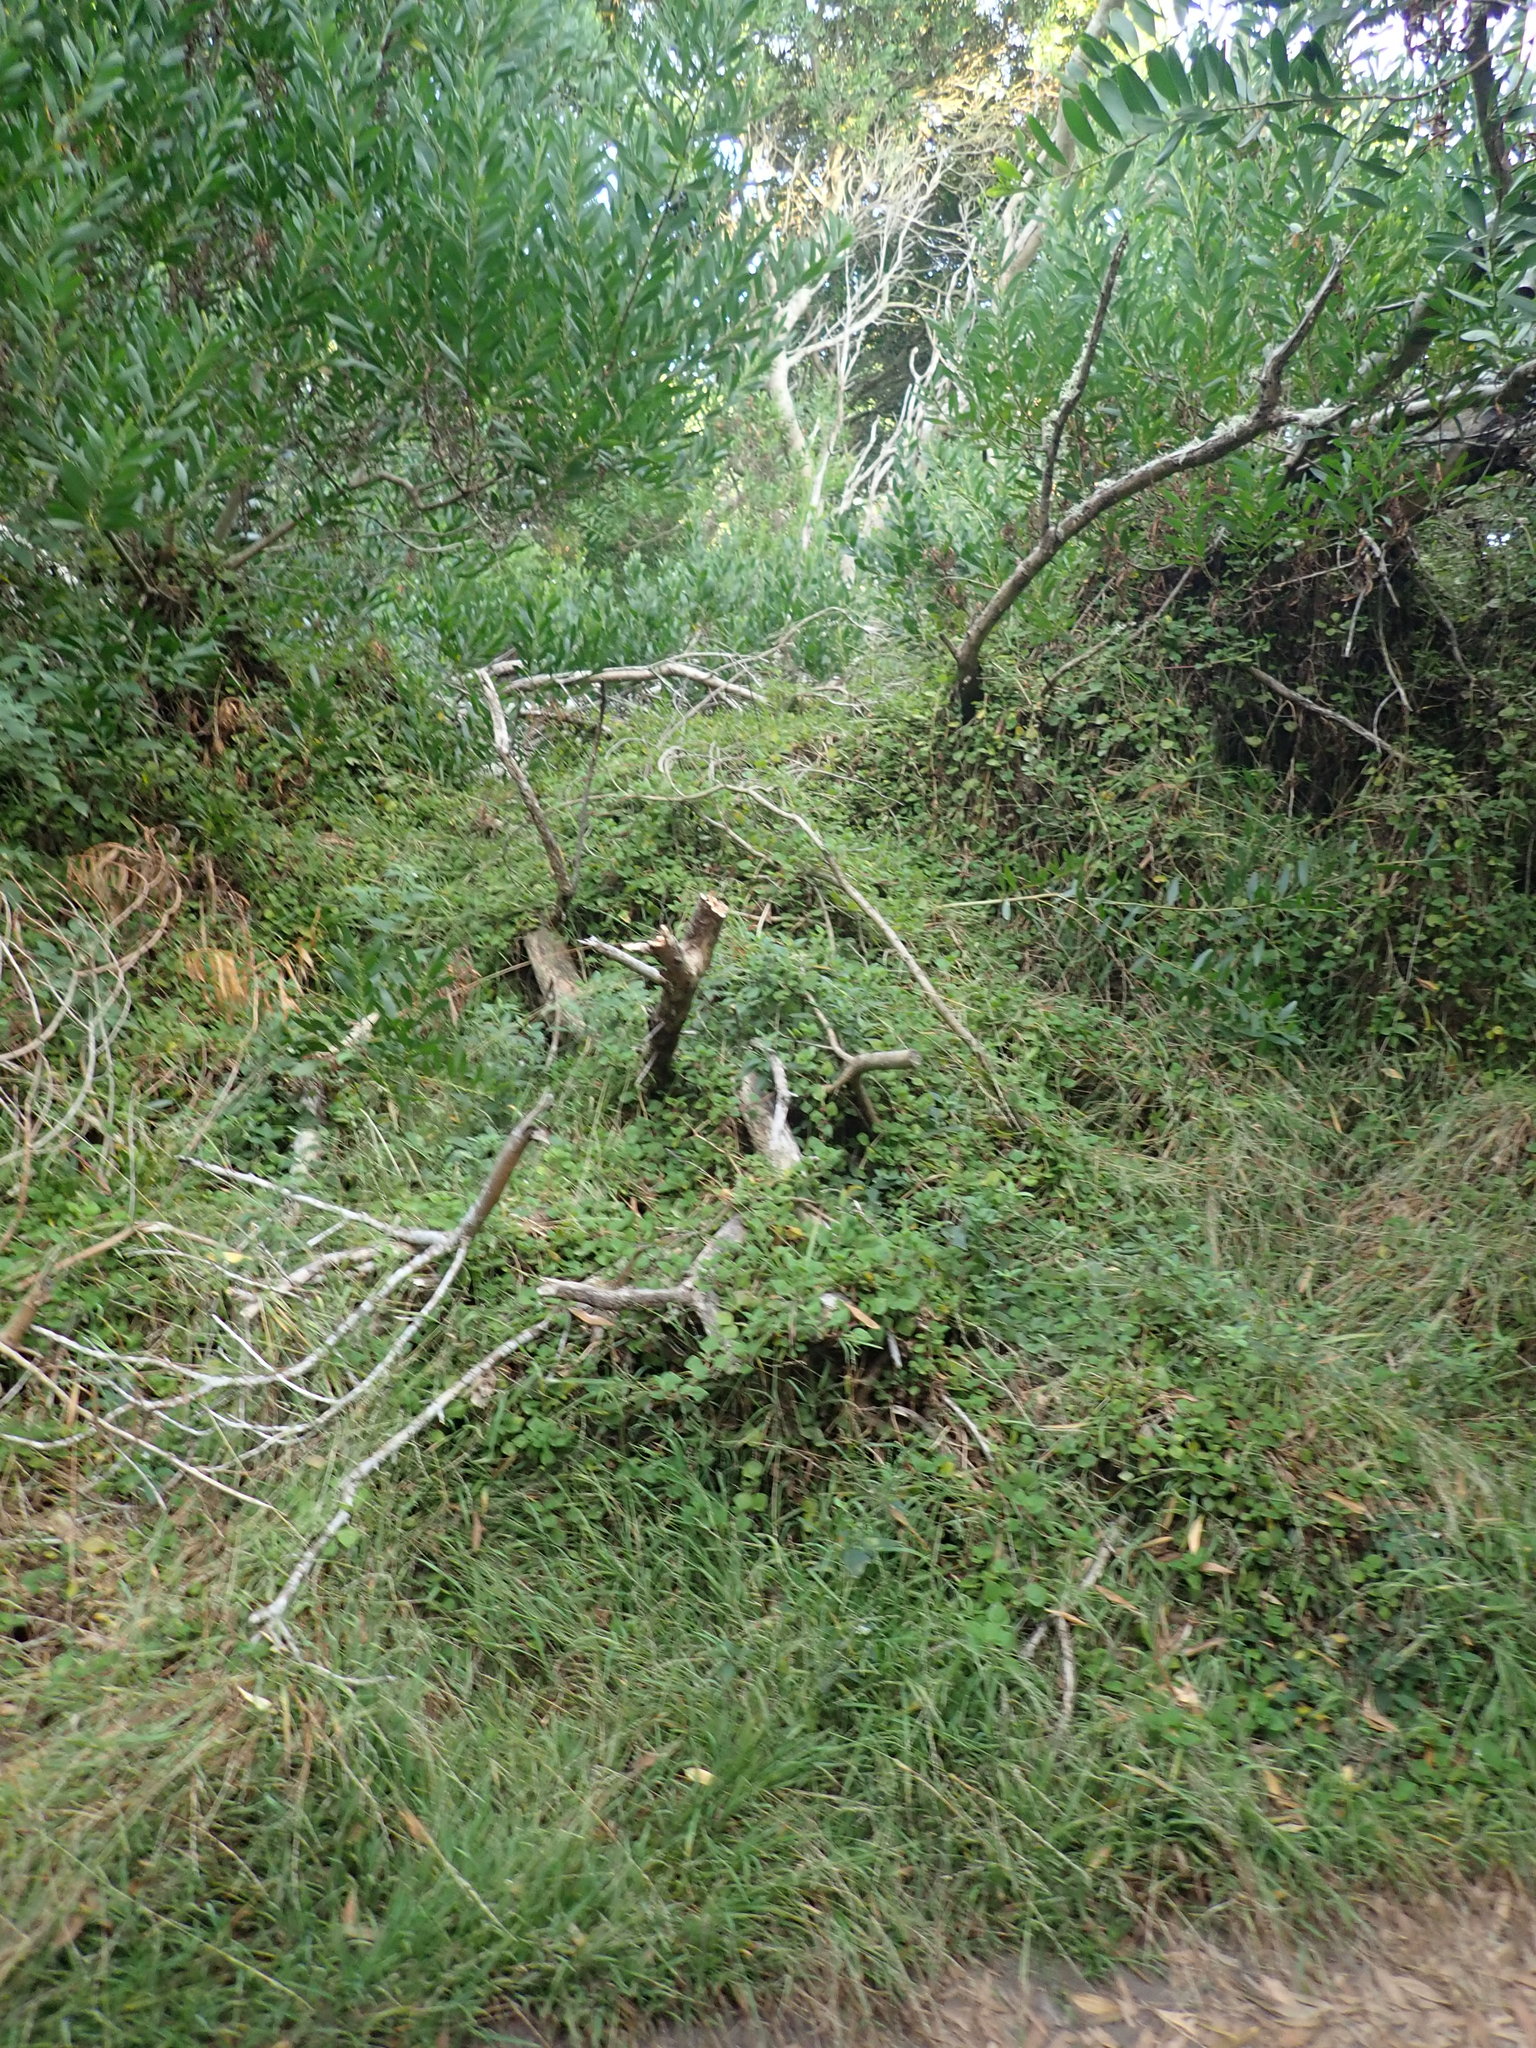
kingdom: Plantae
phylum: Tracheophyta
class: Magnoliopsida
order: Caryophyllales
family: Aizoaceae
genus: Tetragonia
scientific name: Tetragonia implexicoma
